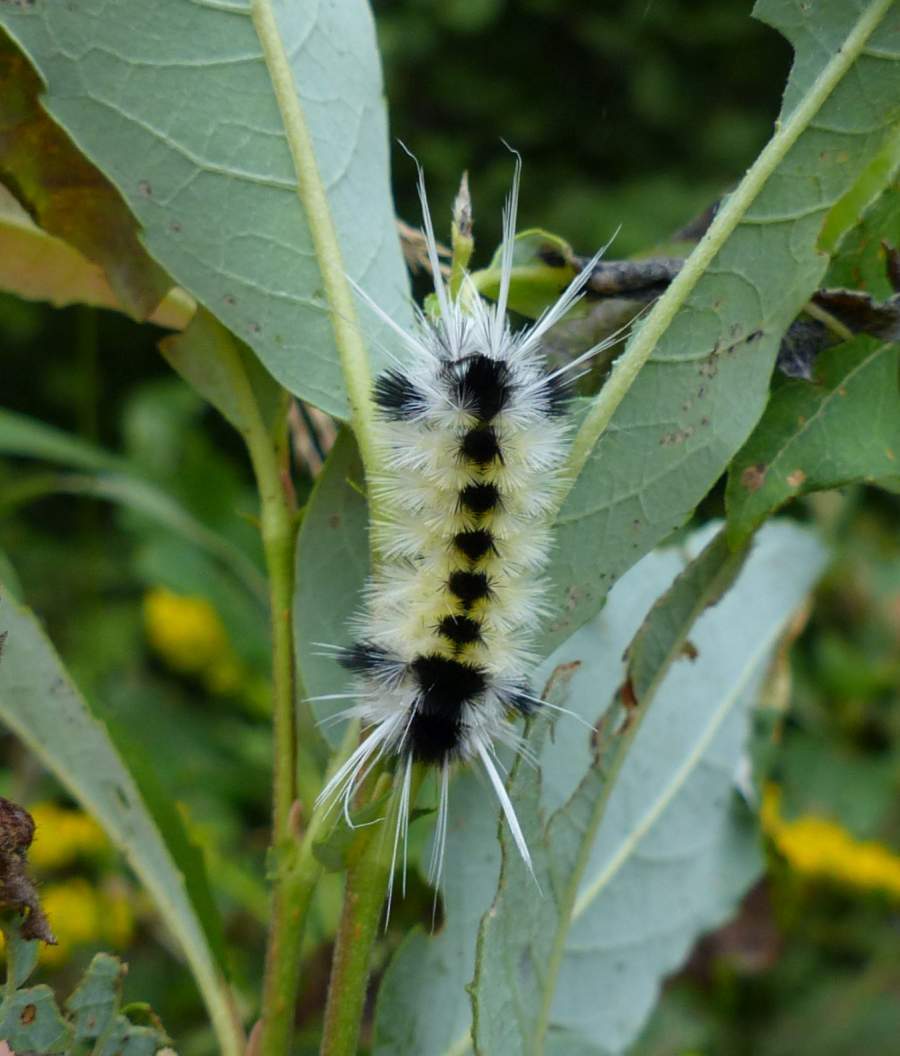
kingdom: Animalia
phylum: Arthropoda
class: Insecta
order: Lepidoptera
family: Erebidae
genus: Lophocampa
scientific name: Lophocampa maculata
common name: Spotted tussock moth
